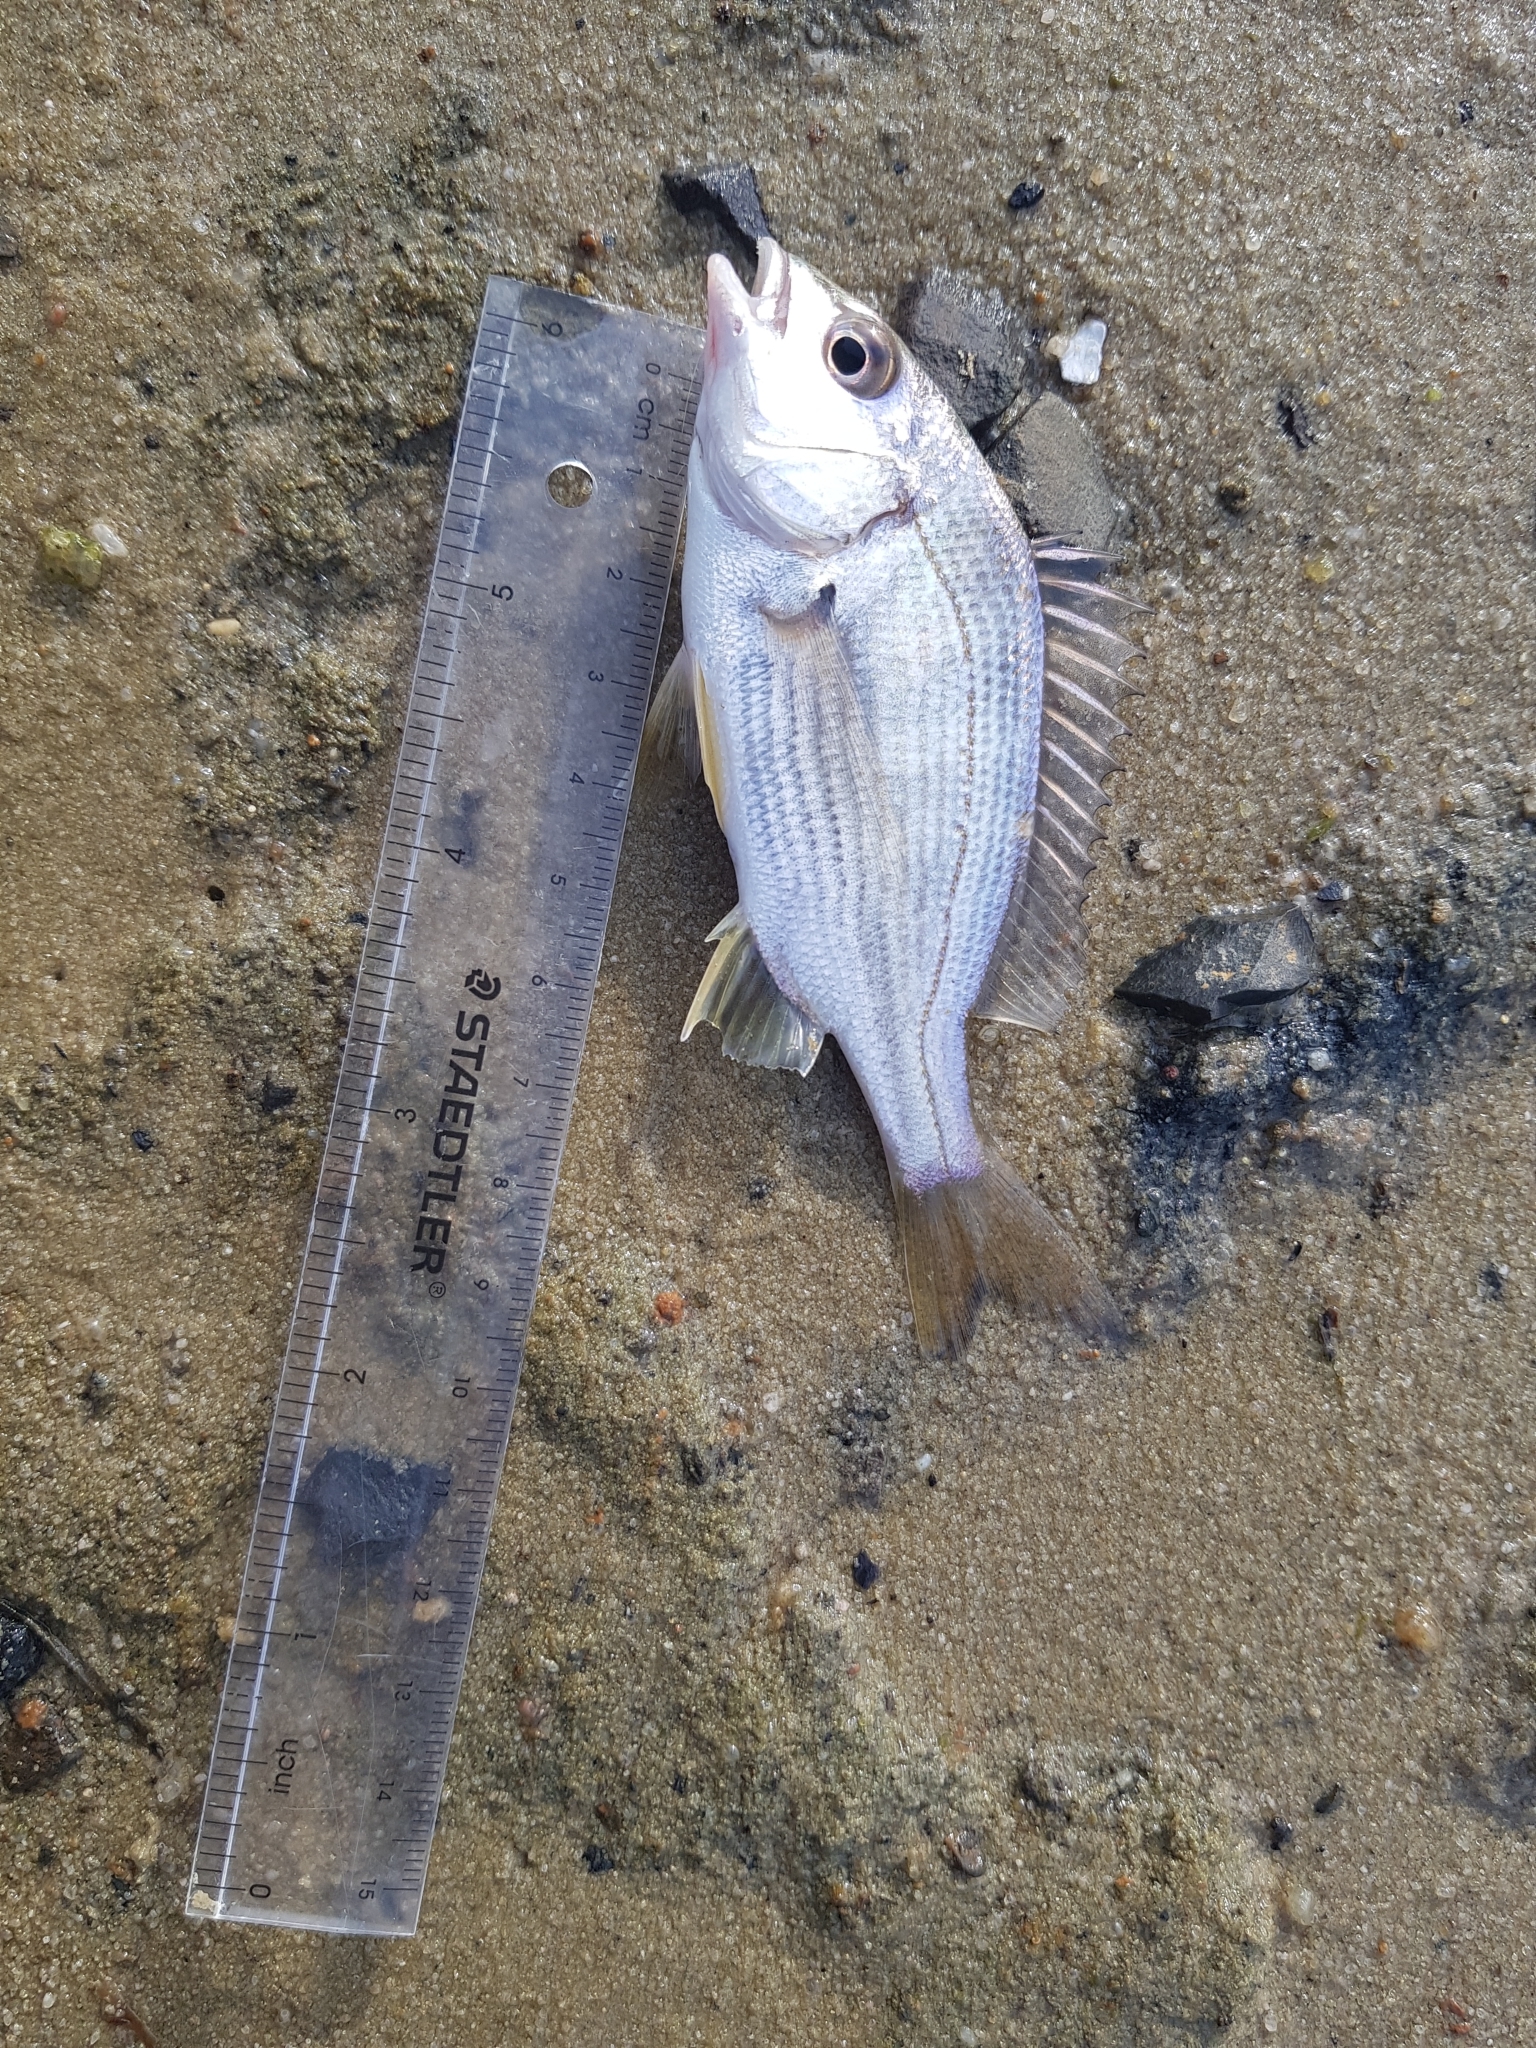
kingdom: Animalia
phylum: Chordata
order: Perciformes
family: Sparidae
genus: Acanthopagrus
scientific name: Acanthopagrus butcheri
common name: Black bream
